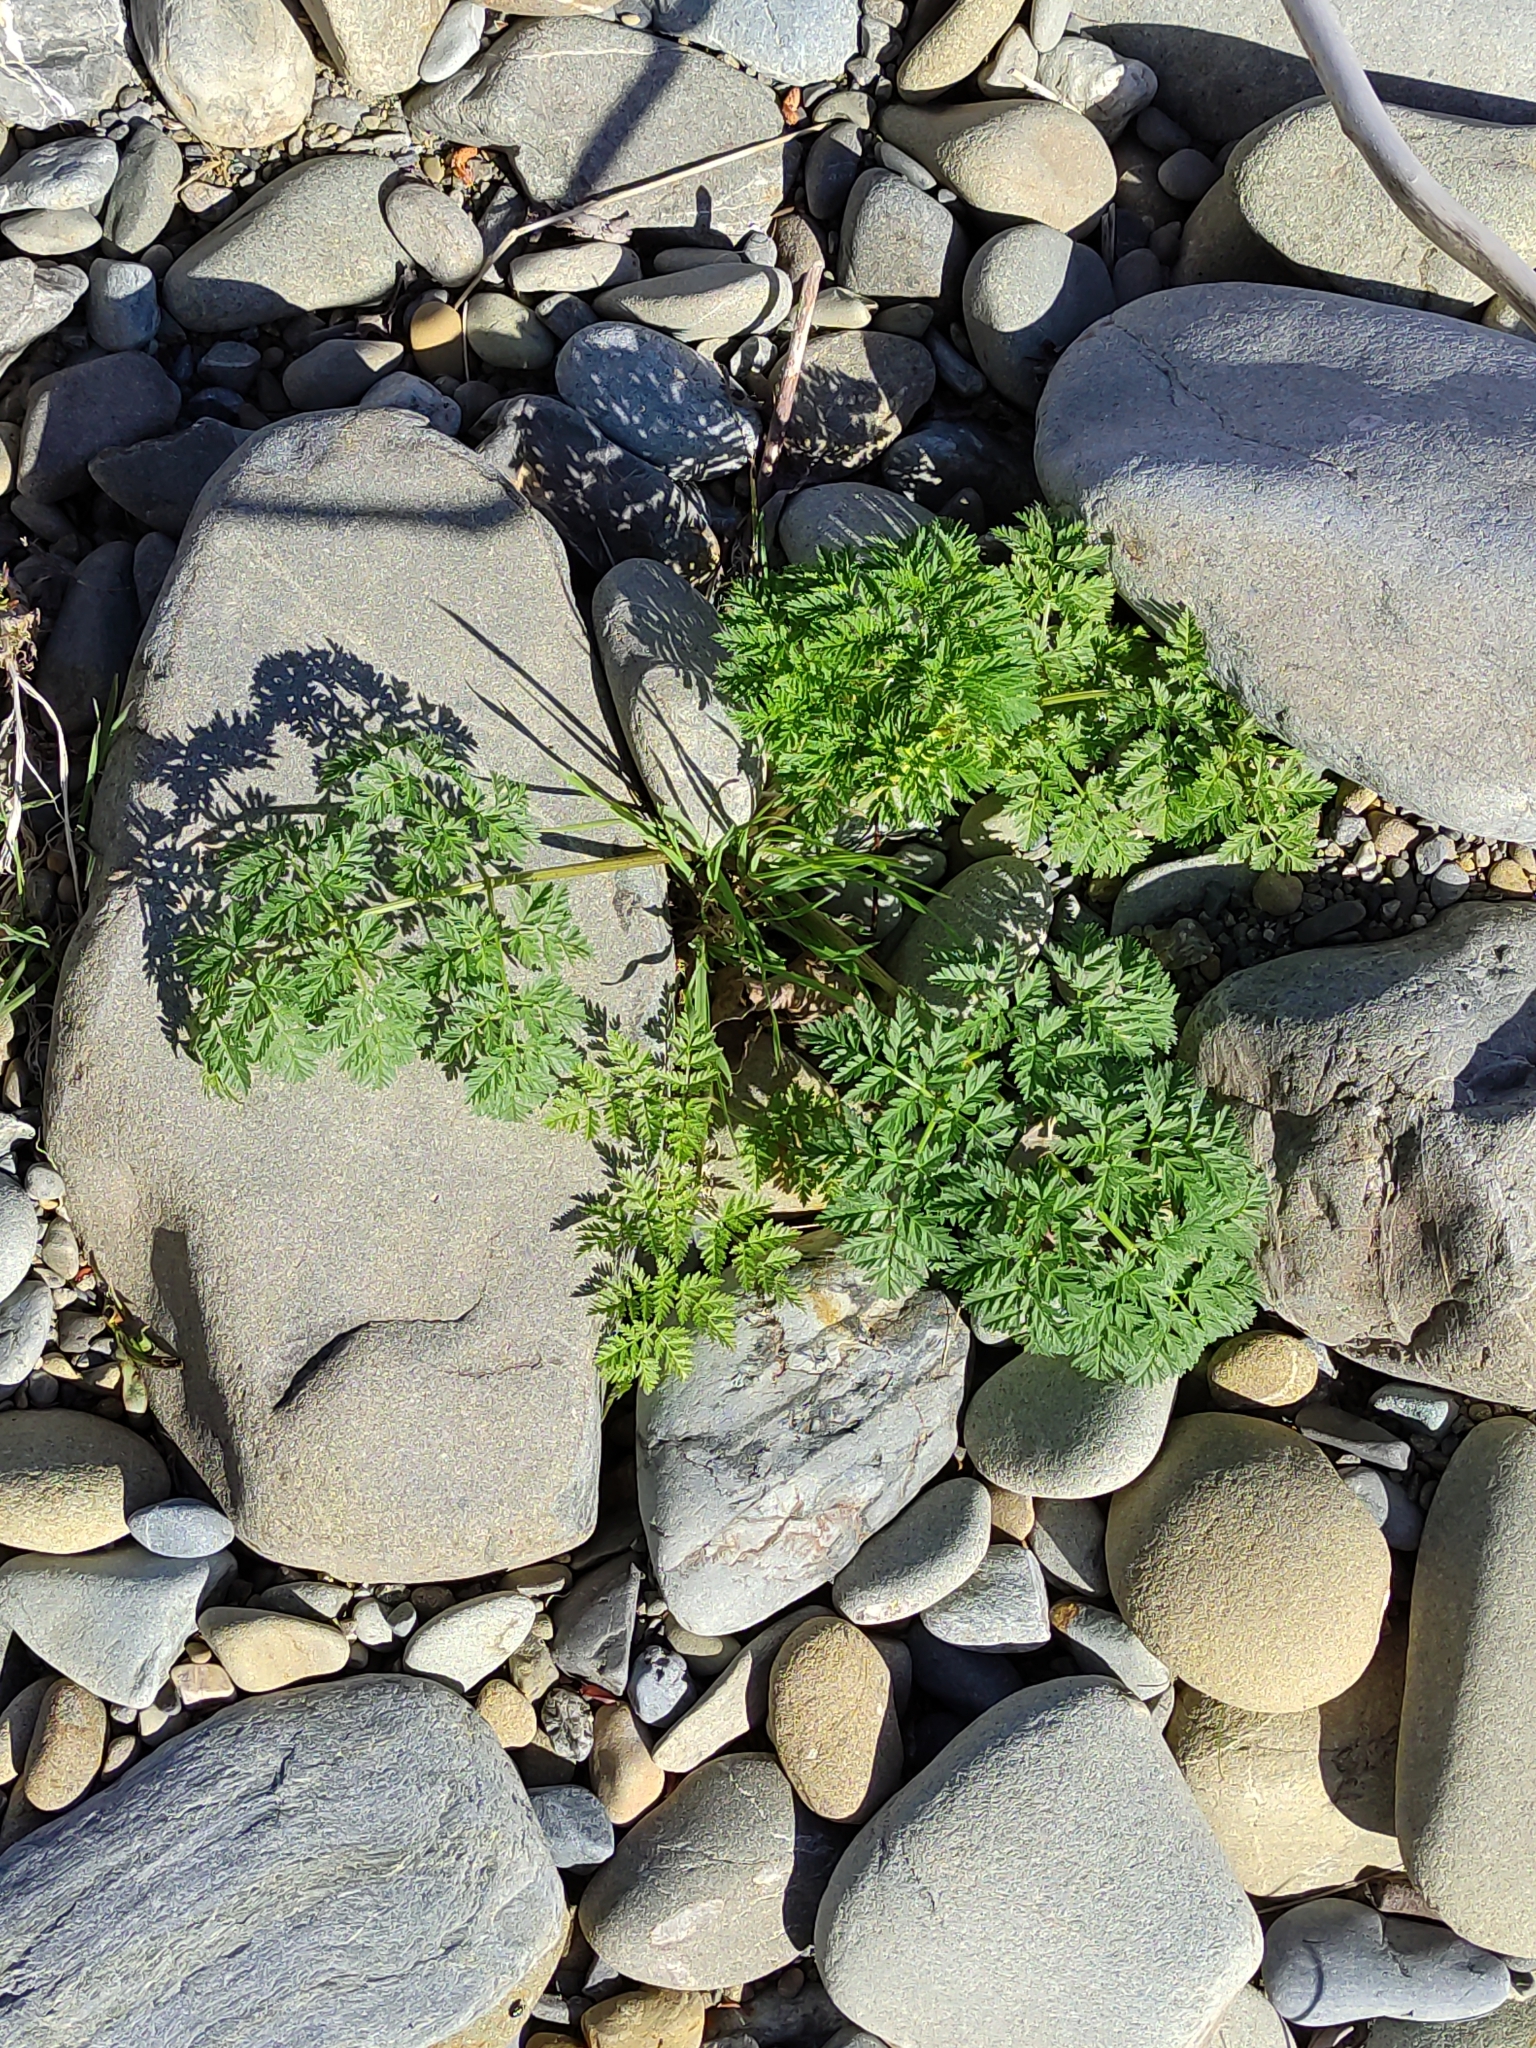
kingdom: Plantae
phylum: Tracheophyta
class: Magnoliopsida
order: Apiales
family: Apiaceae
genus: Conium
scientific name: Conium maculatum
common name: Hemlock
